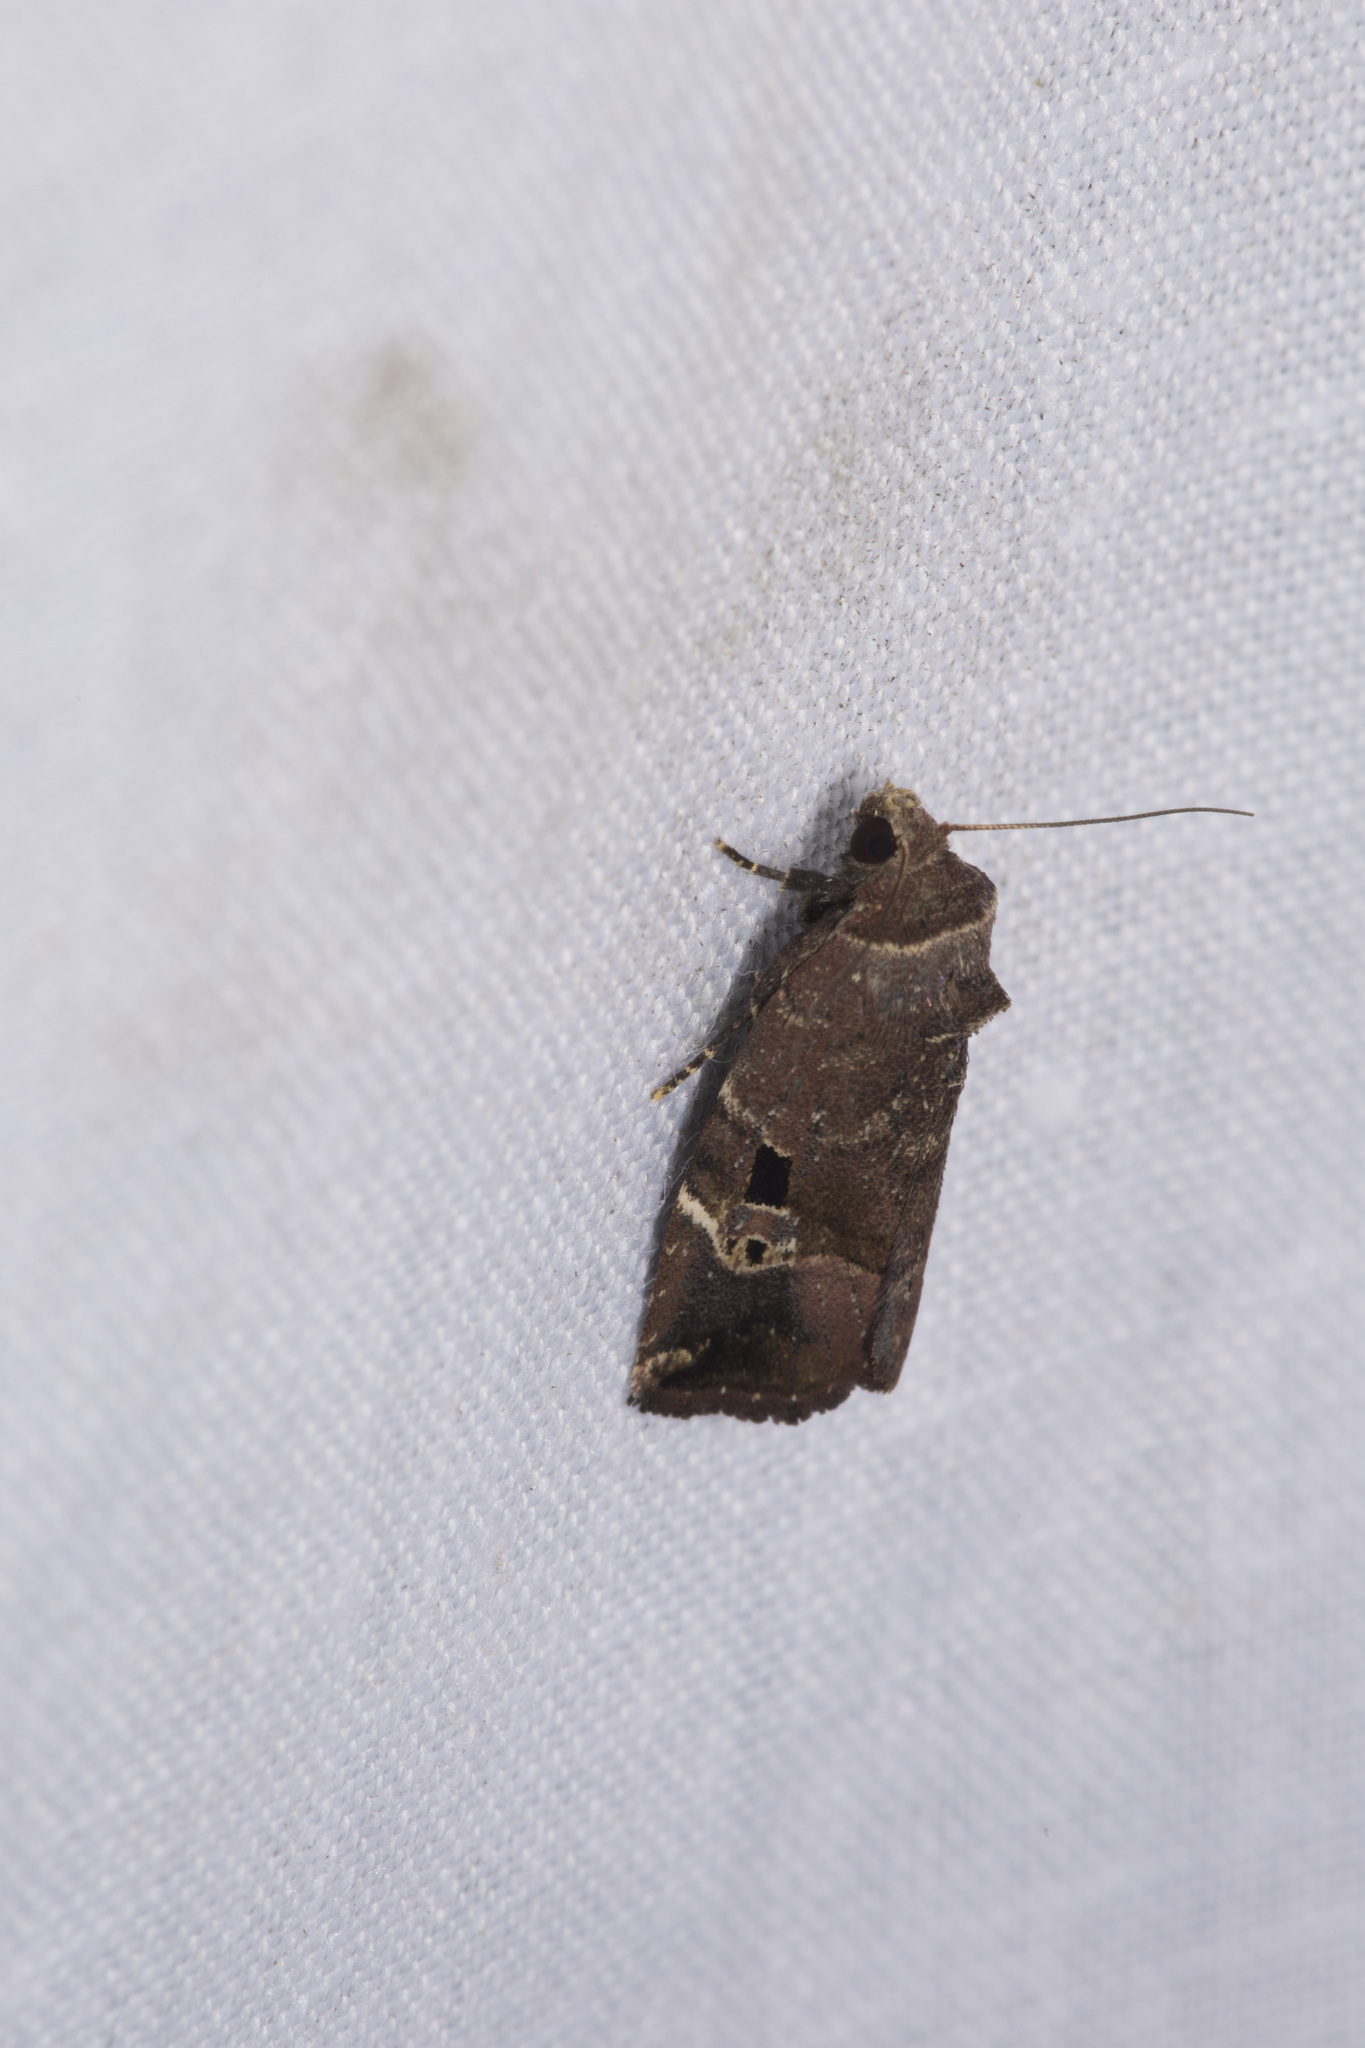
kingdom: Animalia
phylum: Arthropoda
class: Insecta
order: Lepidoptera
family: Noctuidae
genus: Elaphria
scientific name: Elaphria barbarossa
